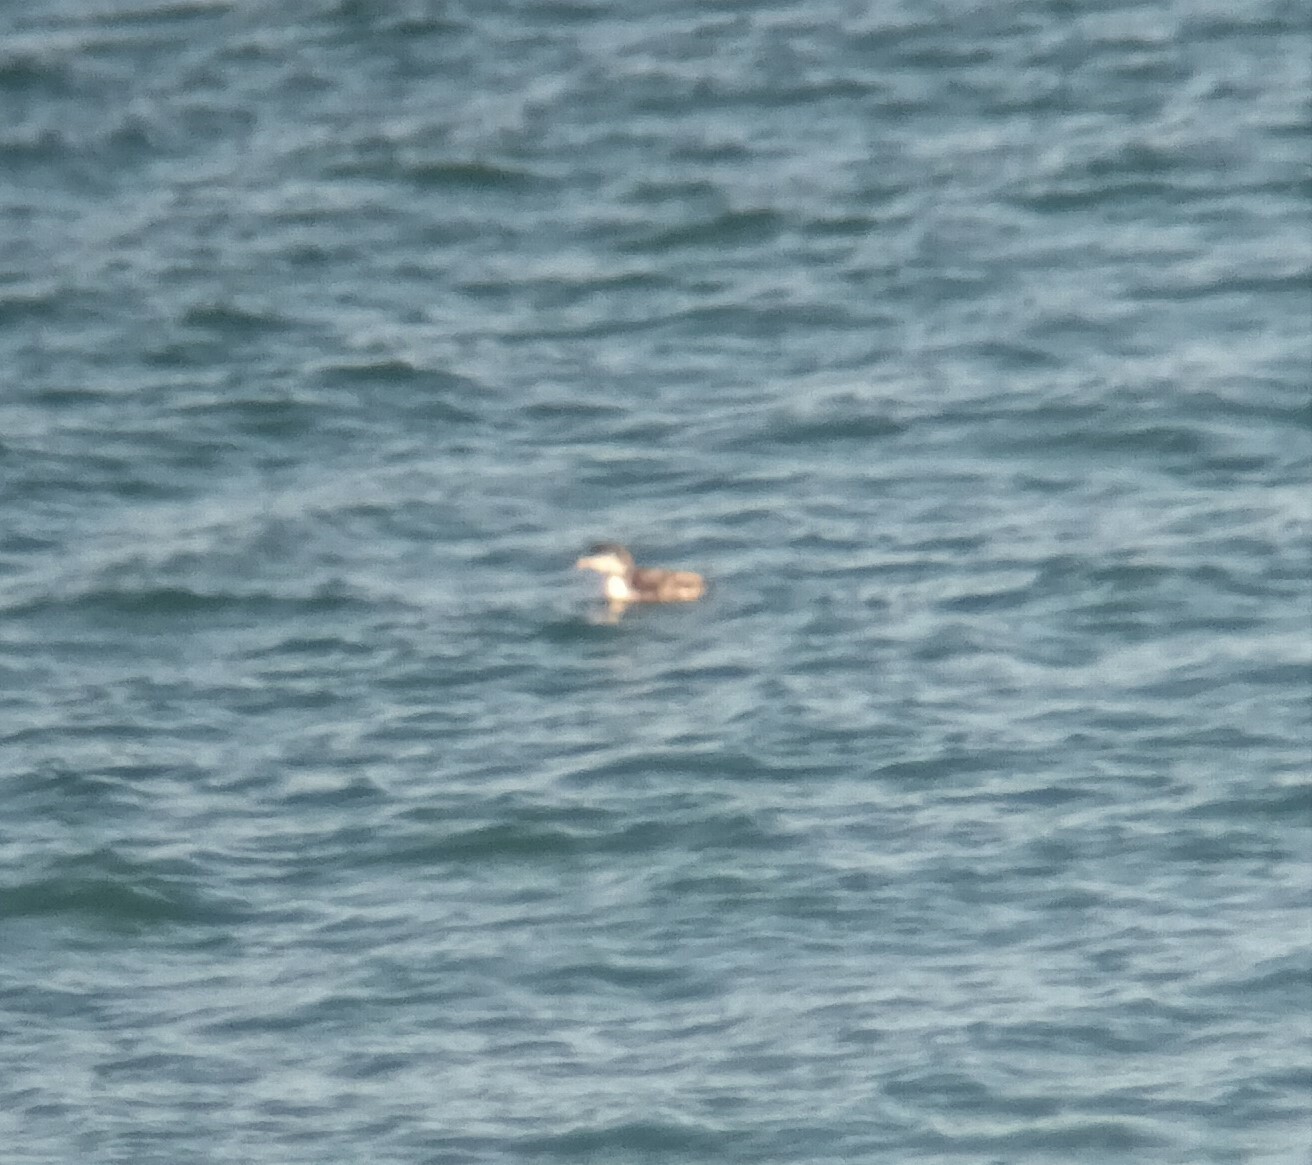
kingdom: Animalia
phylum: Chordata
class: Aves
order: Gaviiformes
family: Gaviidae
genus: Gavia
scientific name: Gavia immer
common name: Common loon
